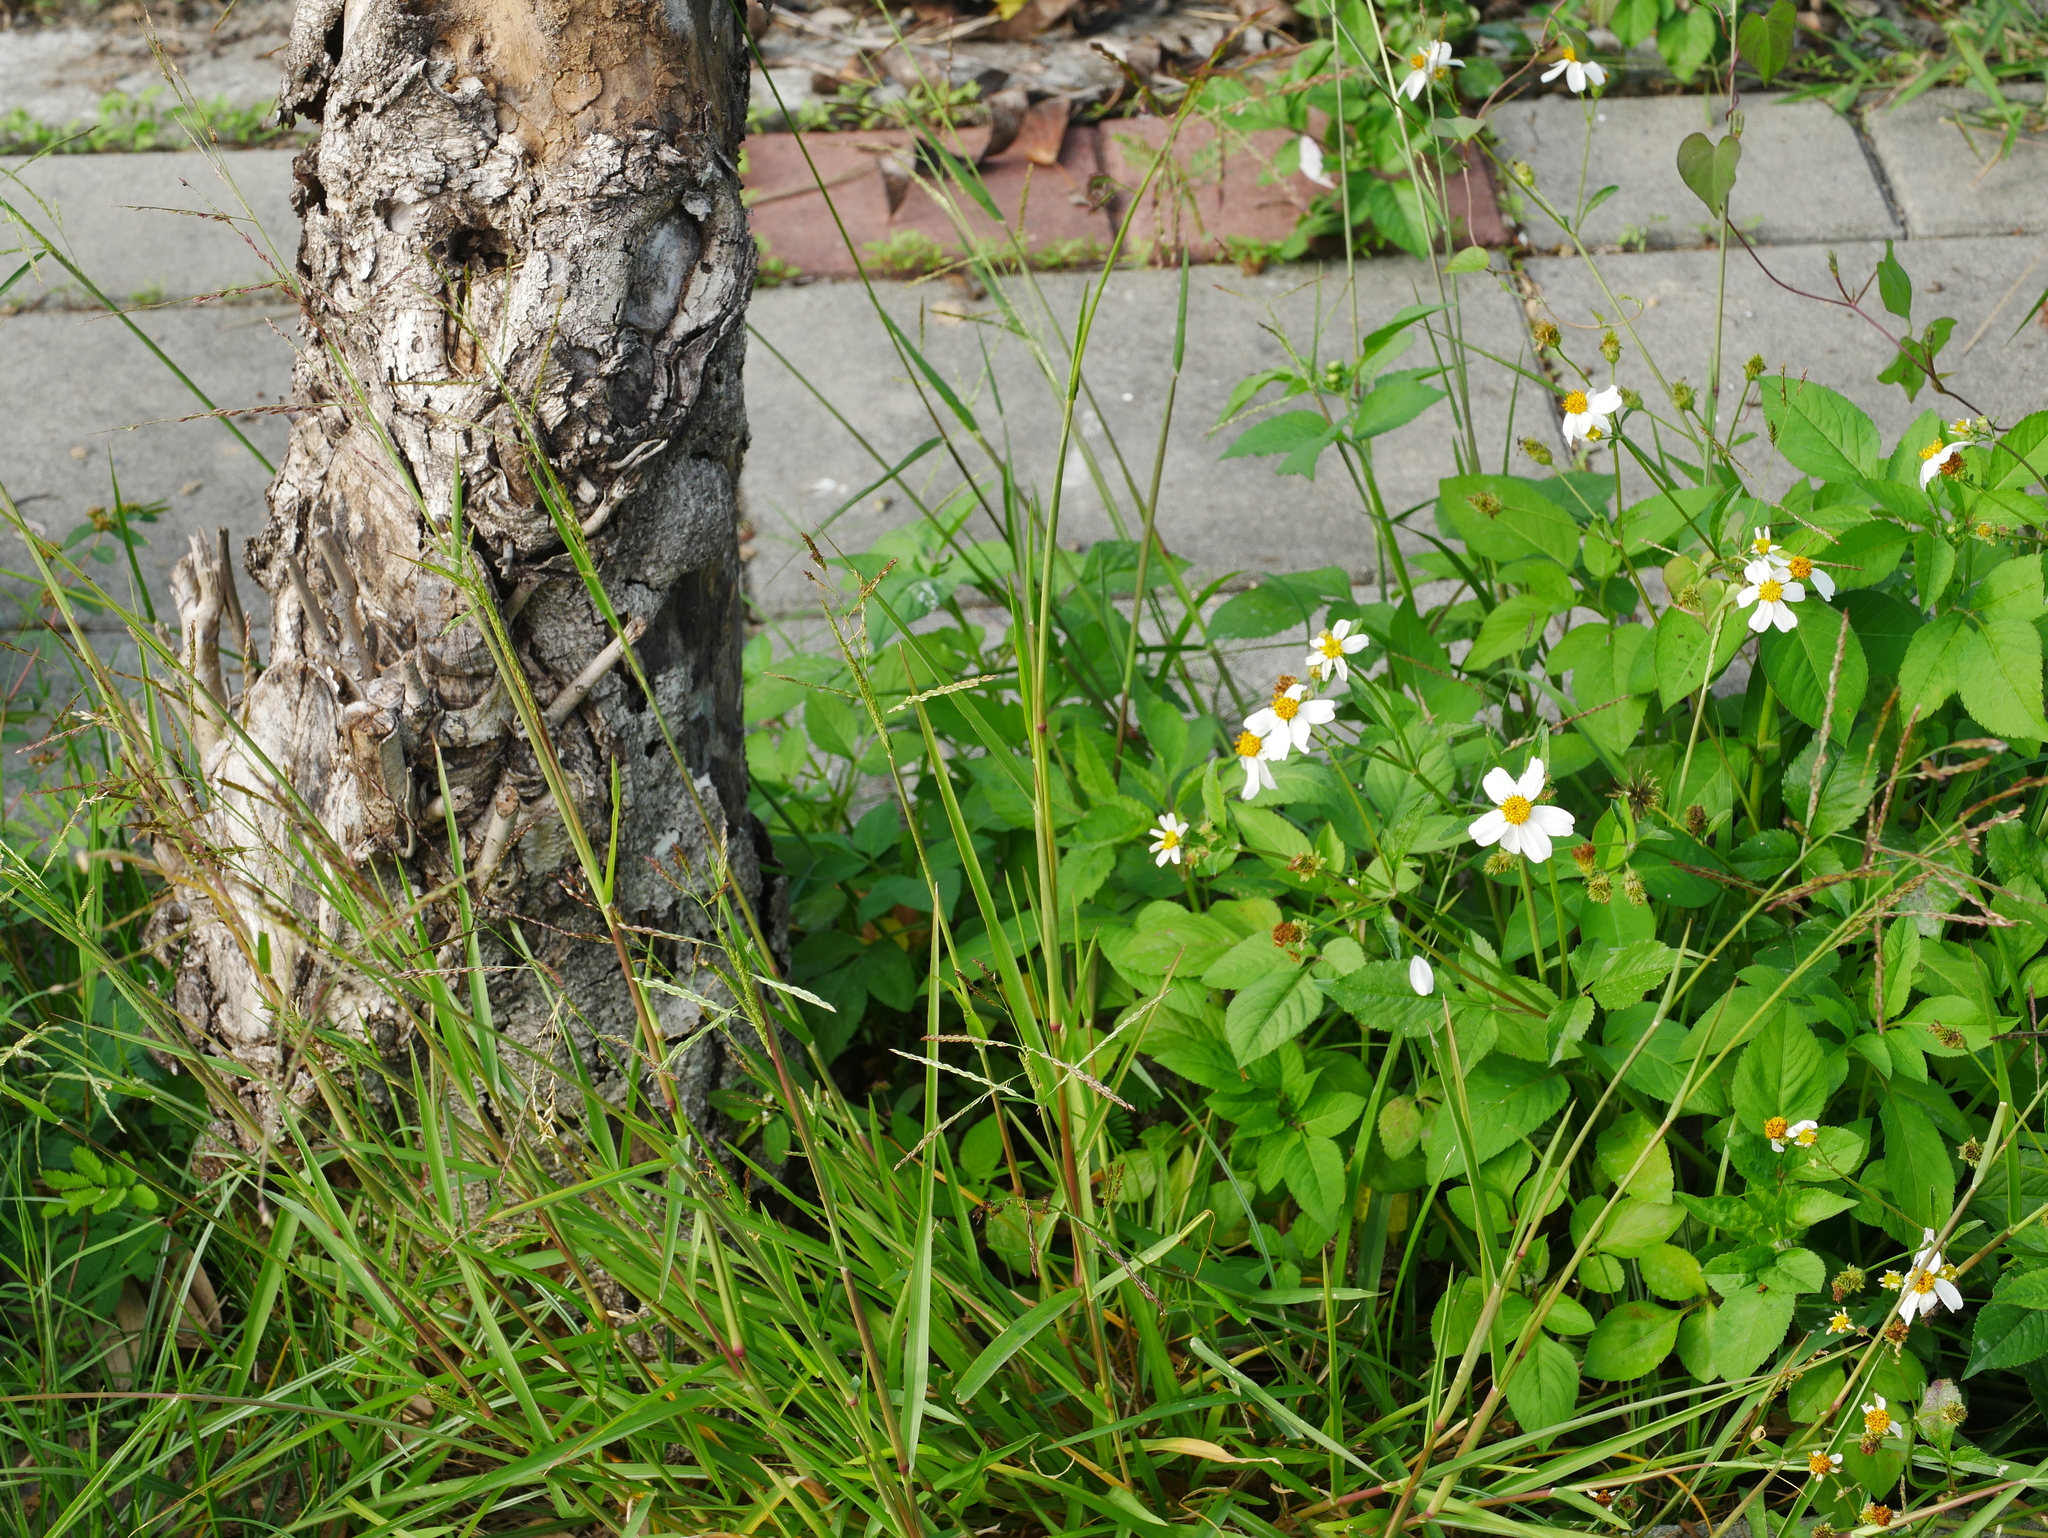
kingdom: Plantae
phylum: Tracheophyta
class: Liliopsida
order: Poales
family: Poaceae
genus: Eriochloa
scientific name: Eriochloa procera
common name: Spring grass
